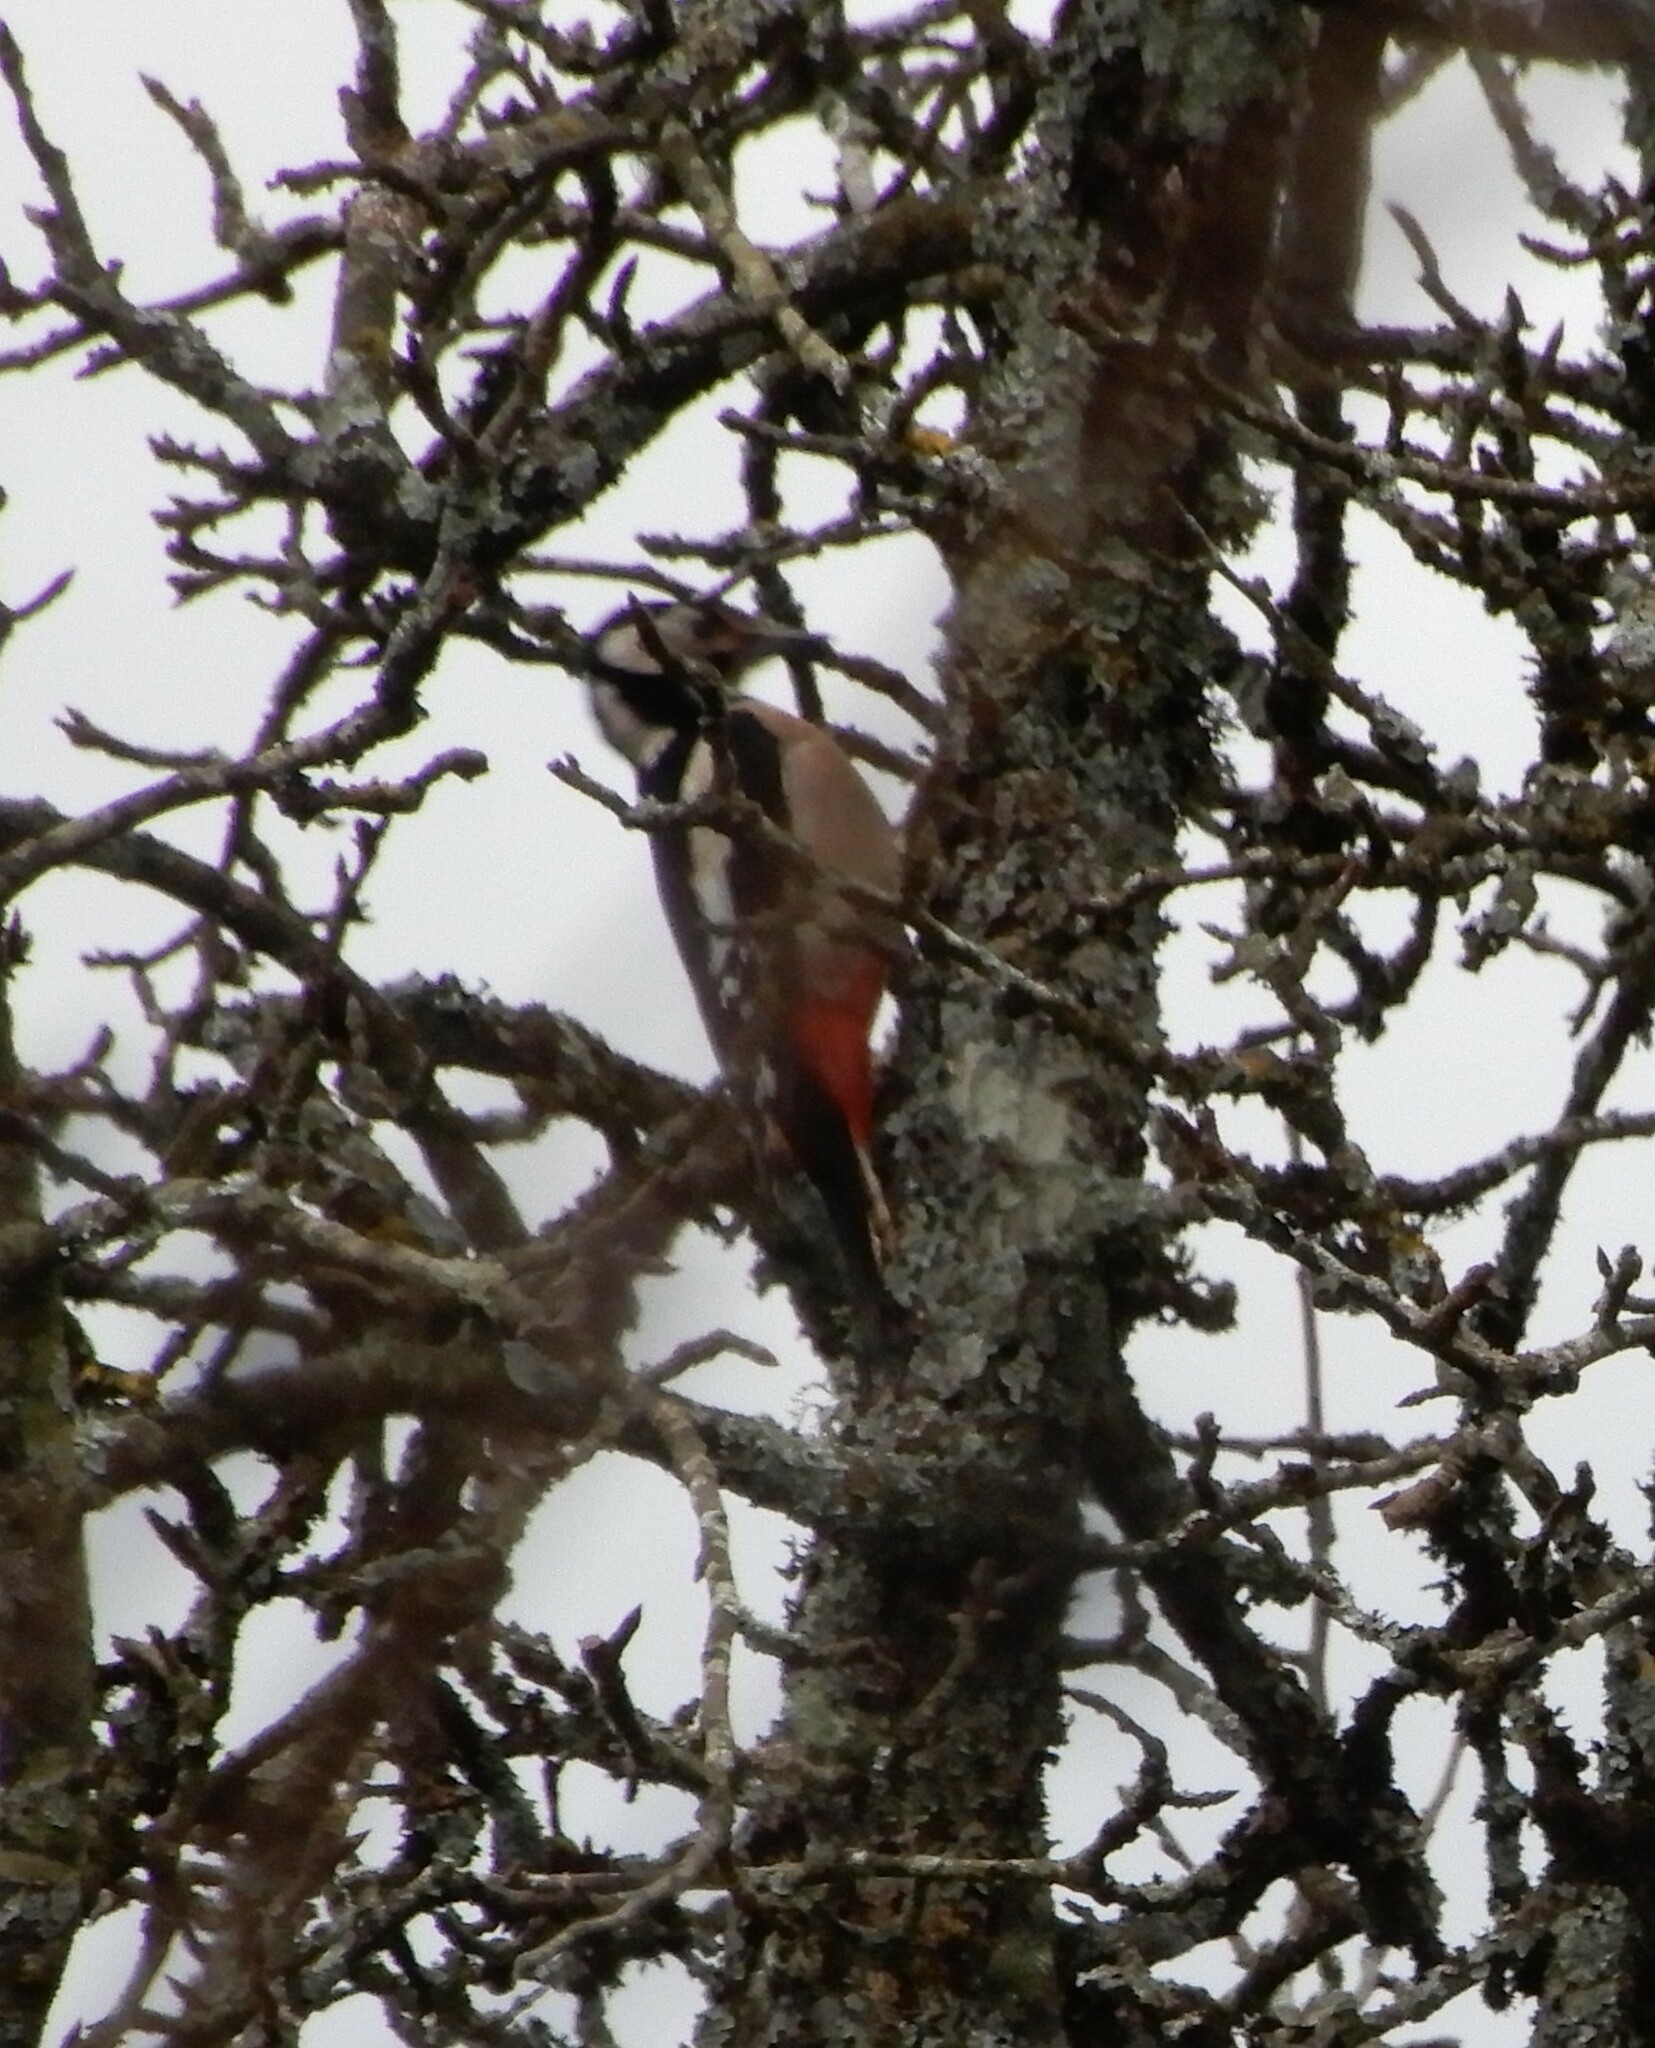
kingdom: Animalia
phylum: Chordata
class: Aves
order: Piciformes
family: Picidae
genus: Dendrocopos
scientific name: Dendrocopos major
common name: Great spotted woodpecker
